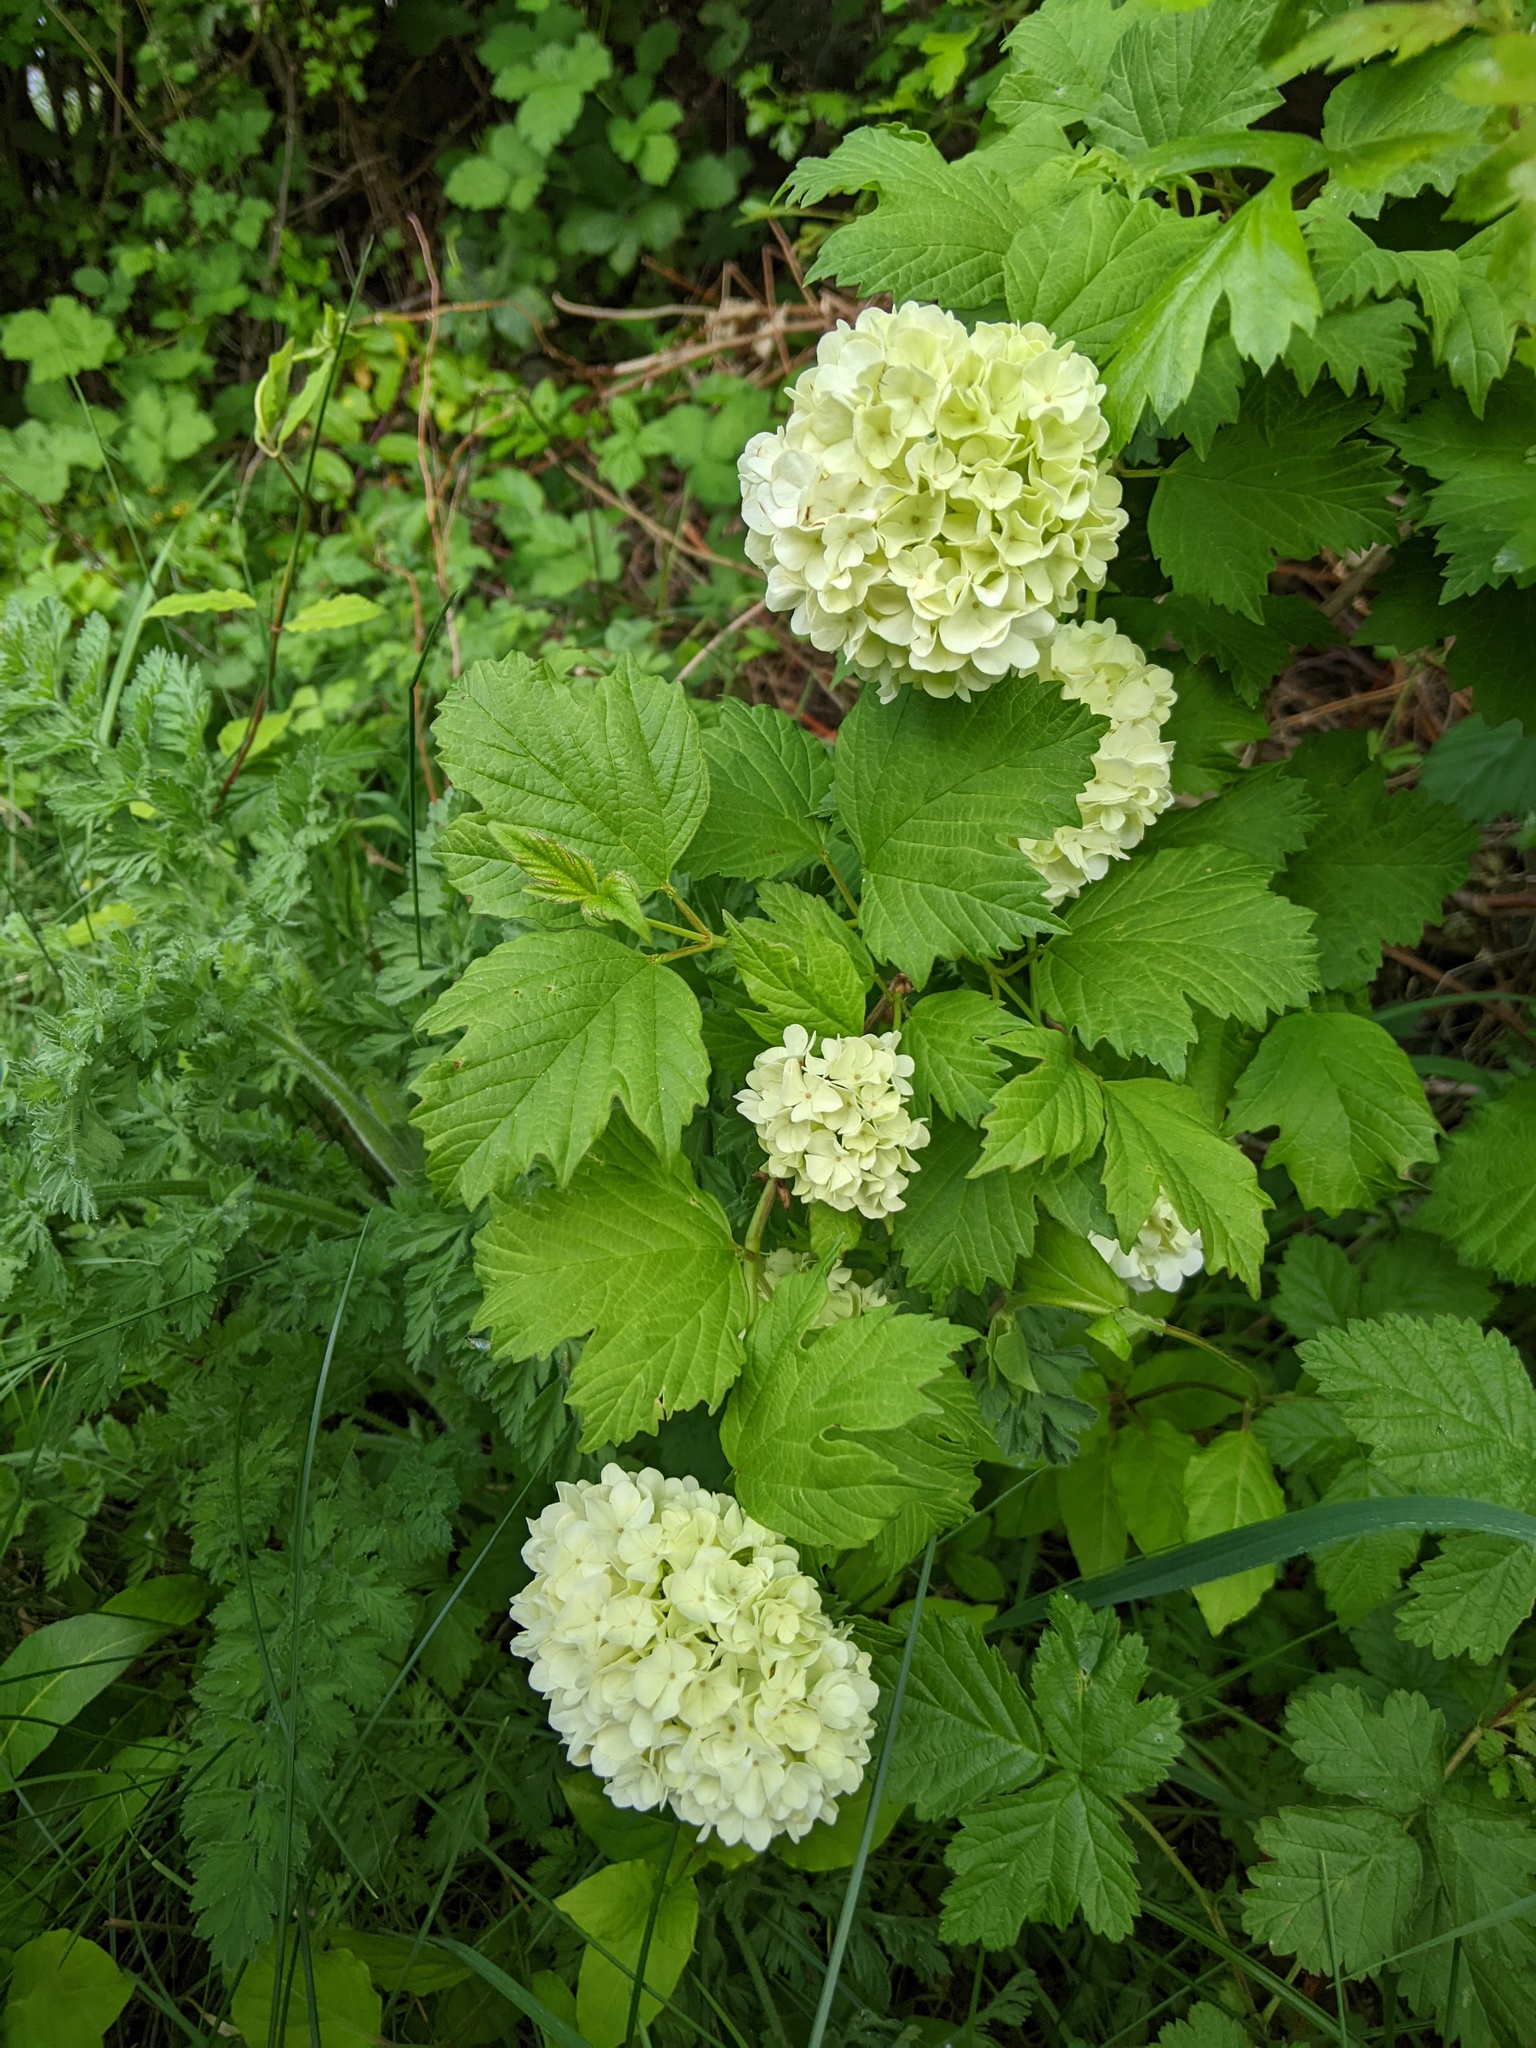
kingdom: Plantae
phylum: Tracheophyta
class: Magnoliopsida
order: Dipsacales
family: Viburnaceae
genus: Viburnum
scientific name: Viburnum opulus
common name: Guelder-rose
